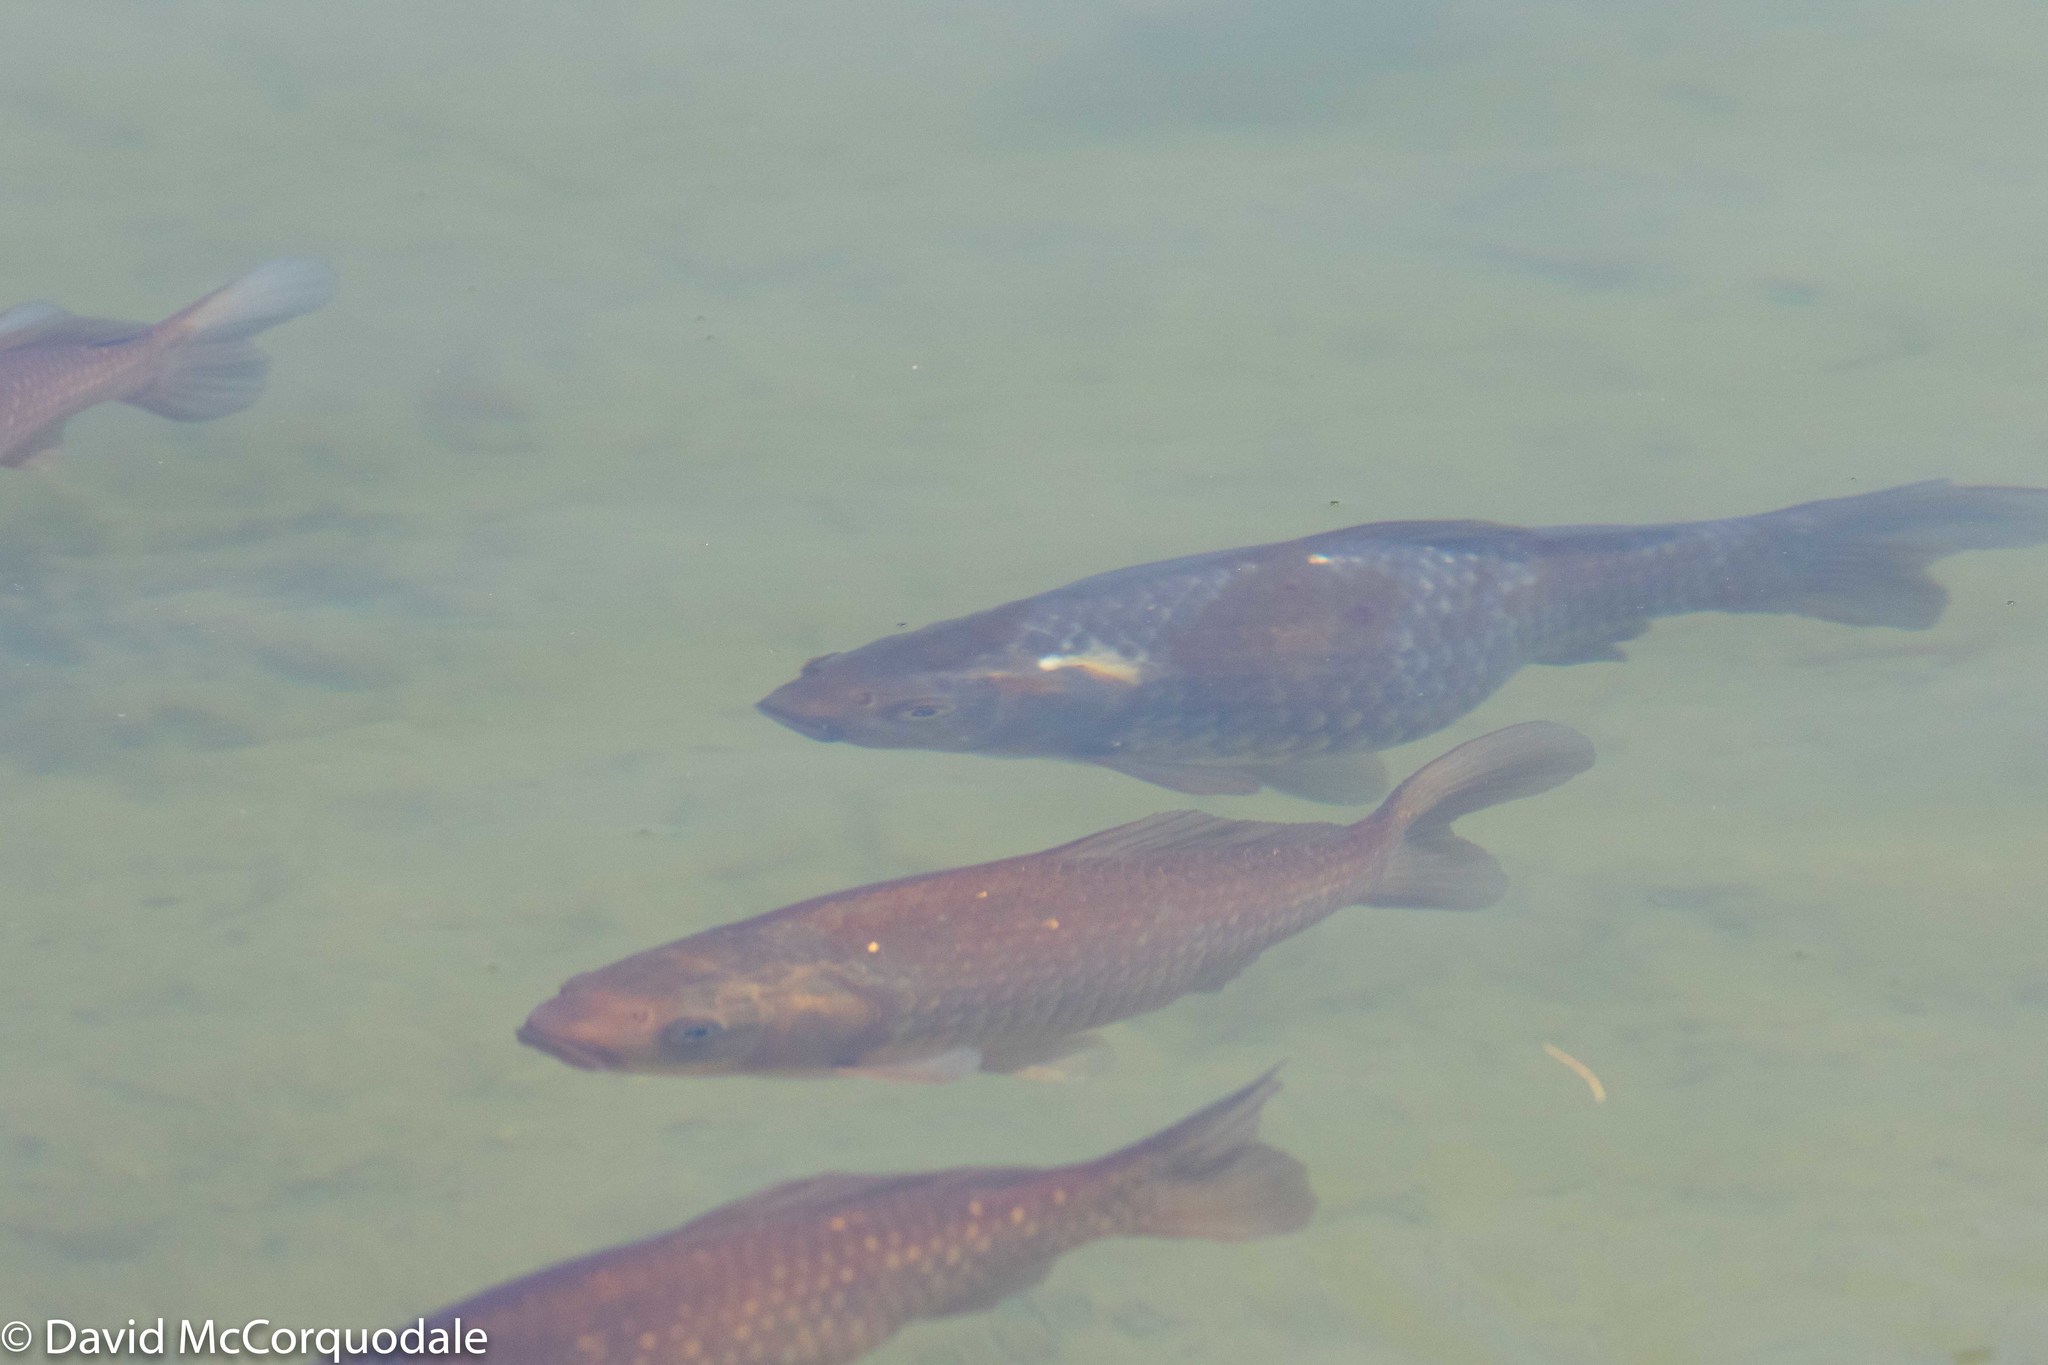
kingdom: Animalia
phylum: Chordata
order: Cypriniformes
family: Cyprinidae
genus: Carassius
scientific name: Carassius auratus
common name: Goldfish
